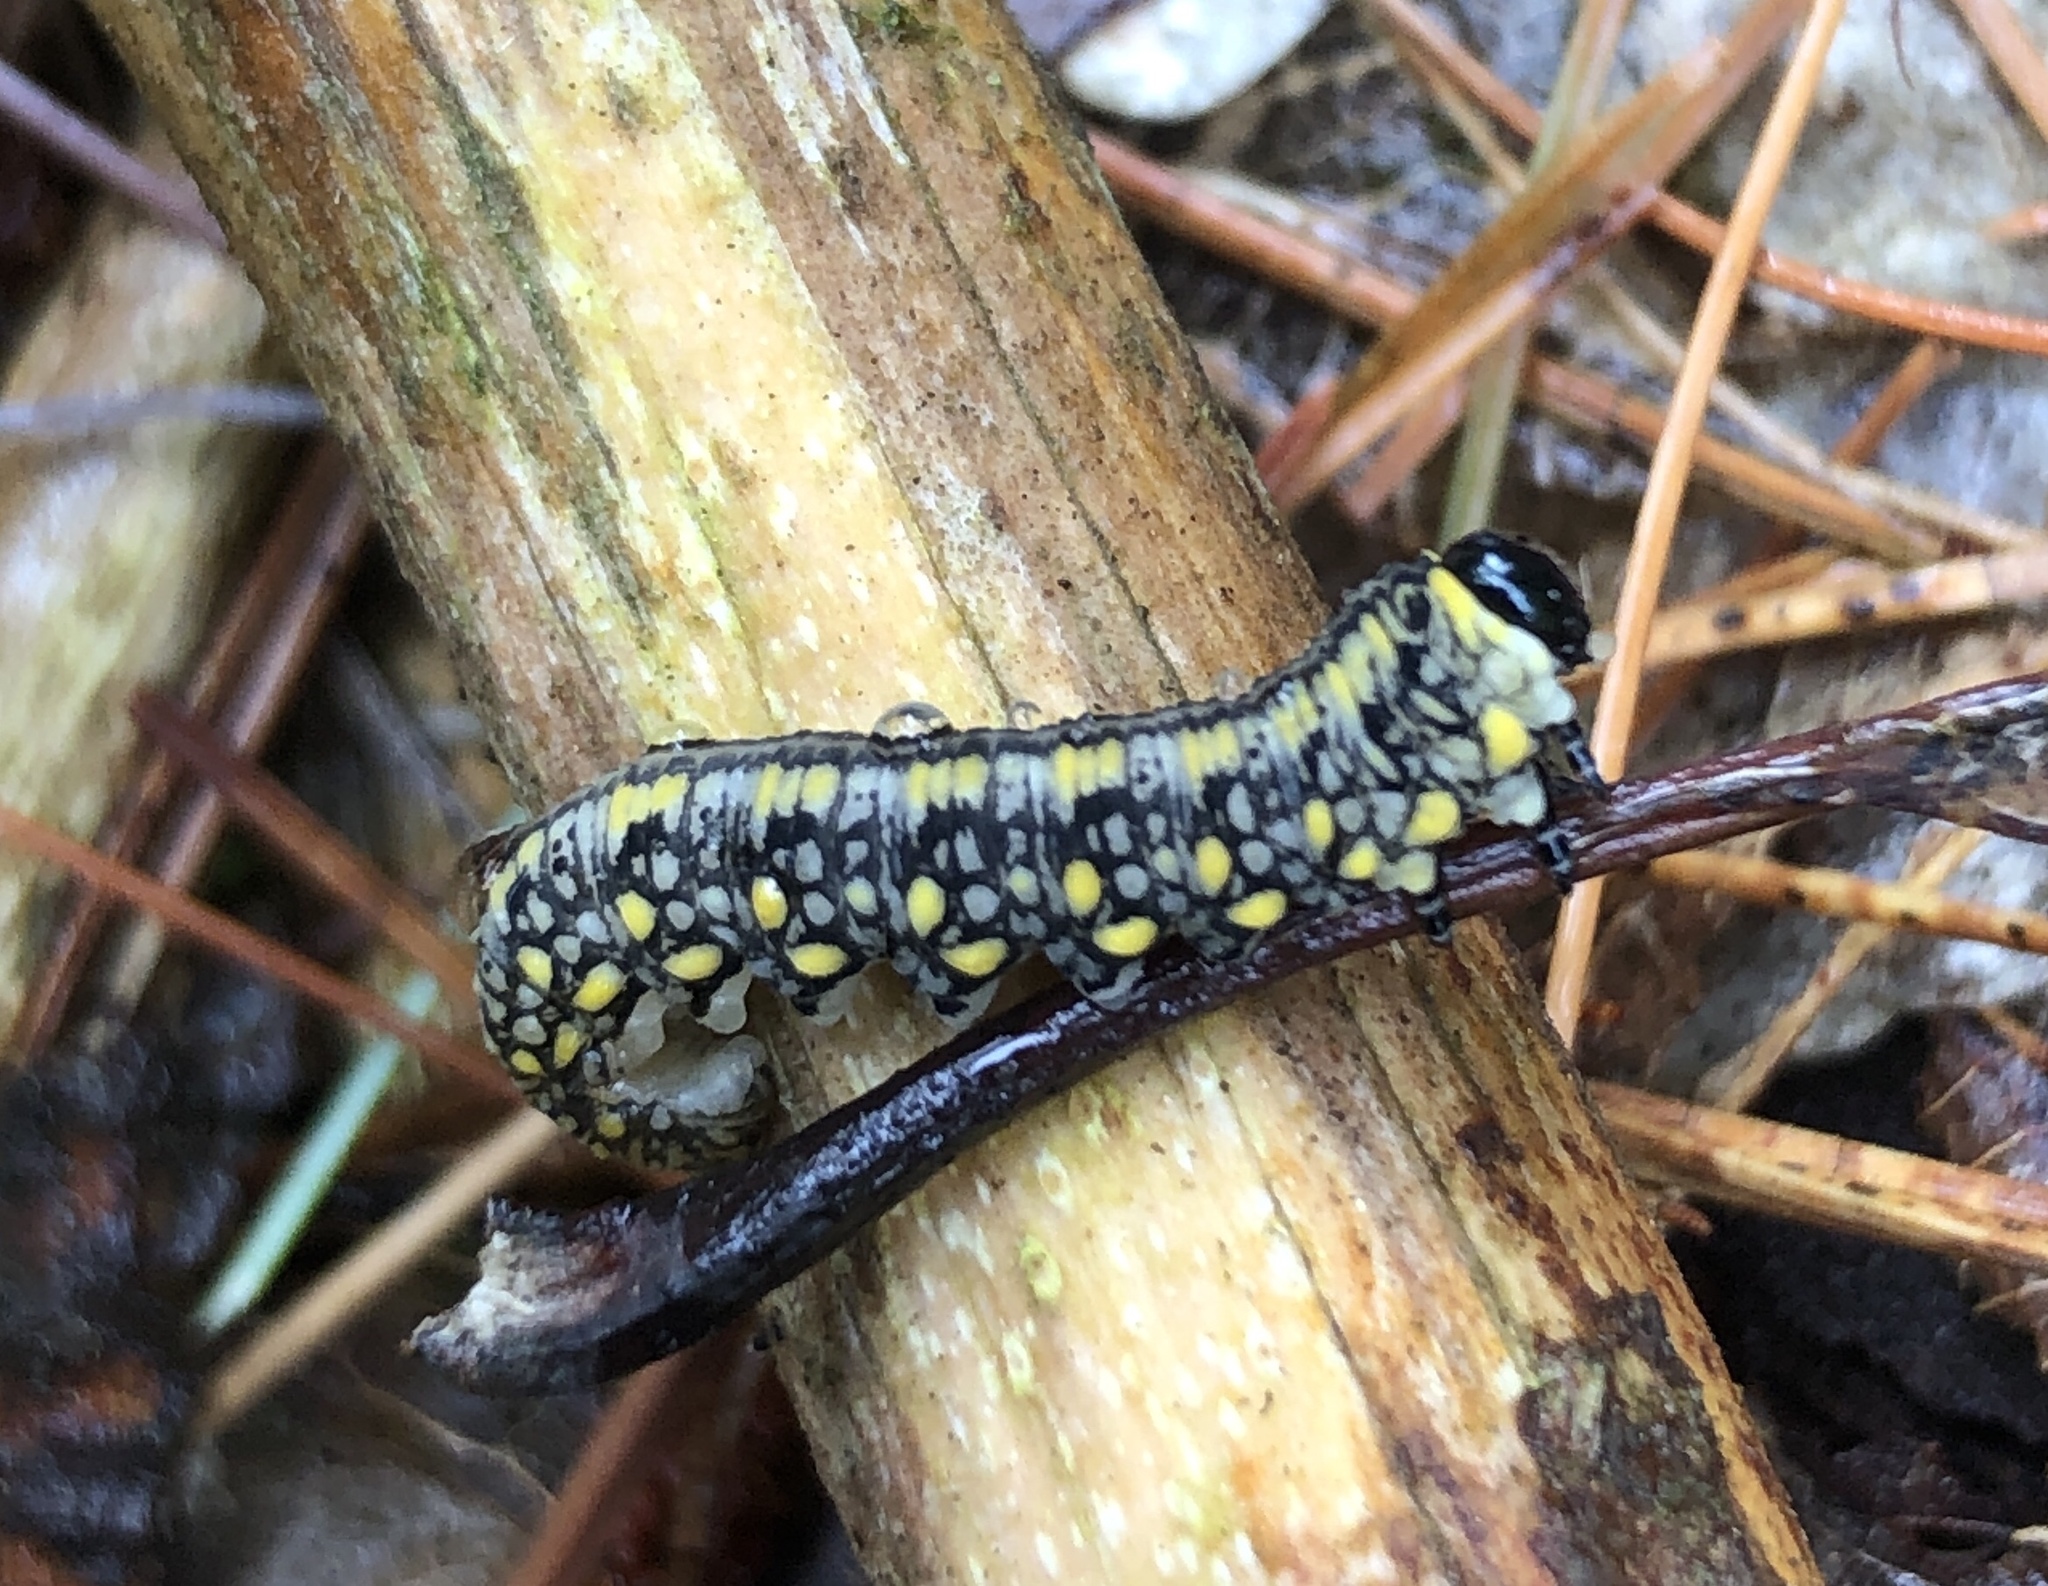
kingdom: Animalia
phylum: Arthropoda
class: Insecta
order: Hymenoptera
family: Diprionidae
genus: Diprion
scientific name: Diprion similis
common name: Pine sawfly
